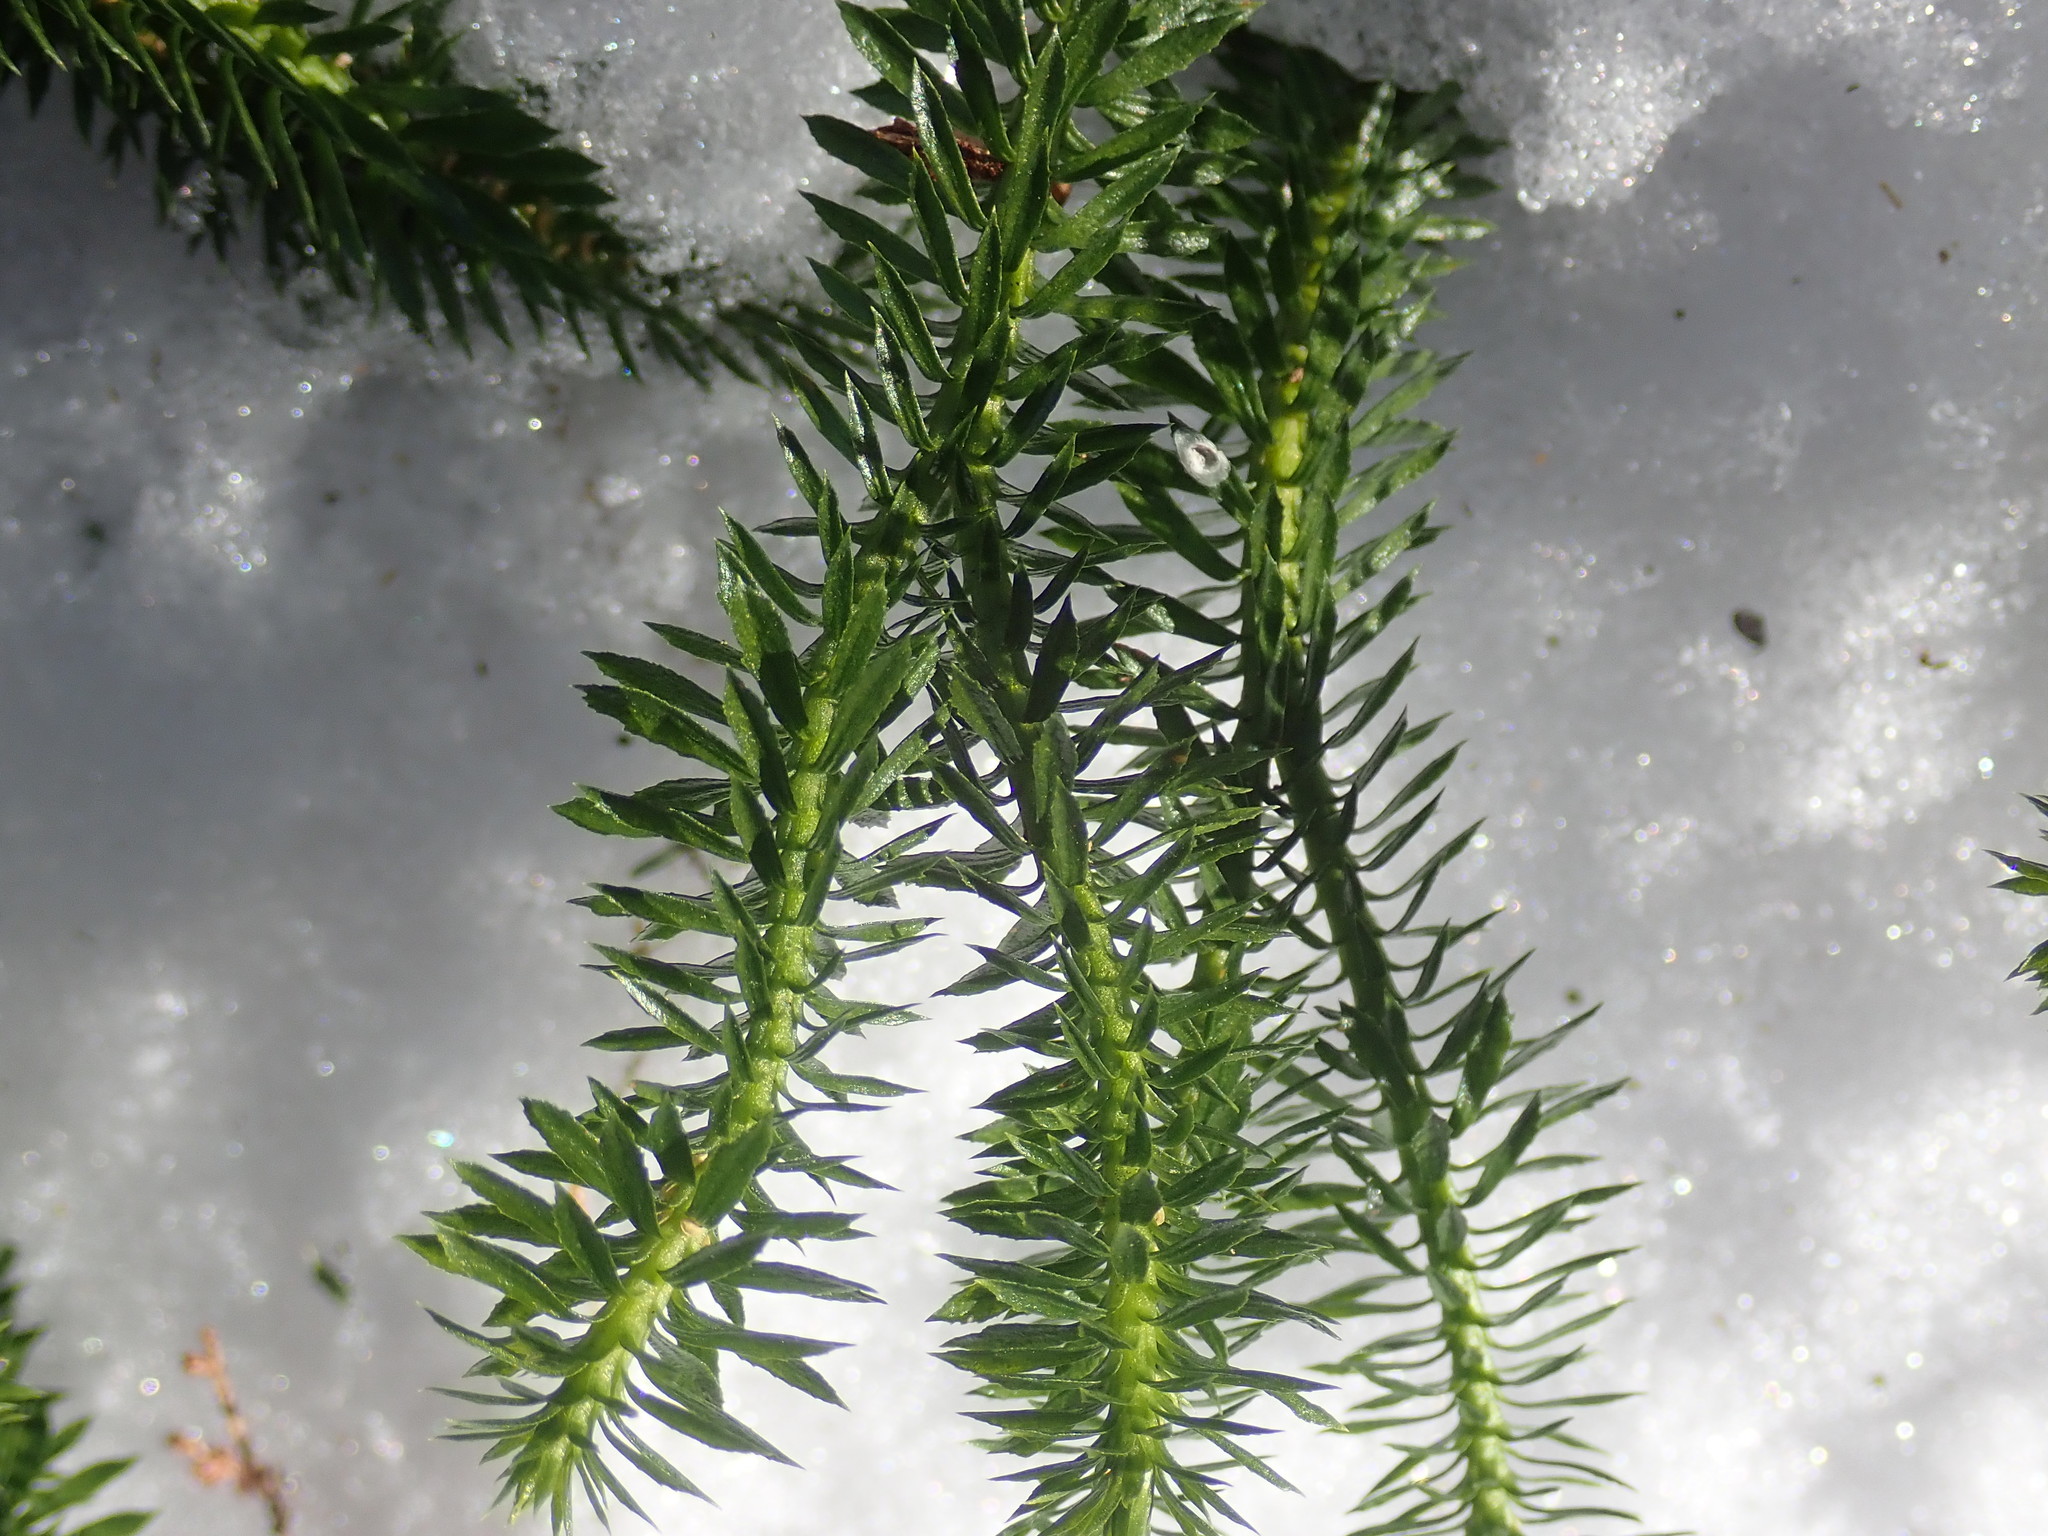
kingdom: Plantae
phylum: Tracheophyta
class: Lycopodiopsida
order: Lycopodiales
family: Lycopodiaceae
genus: Huperzia
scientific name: Huperzia lucidula
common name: Shining clubmoss
